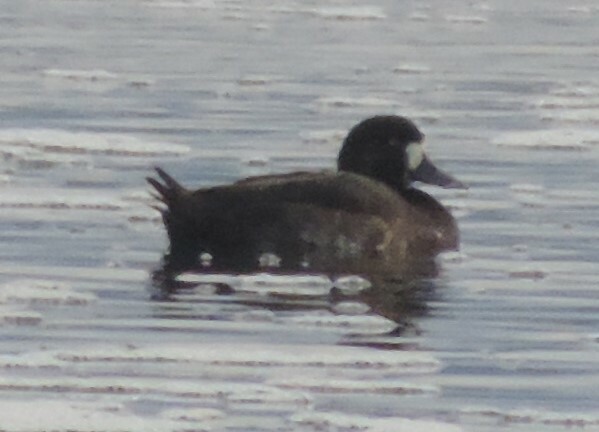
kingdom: Animalia
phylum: Chordata
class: Aves
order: Anseriformes
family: Anatidae
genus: Aythya
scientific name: Aythya marila
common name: Greater scaup
